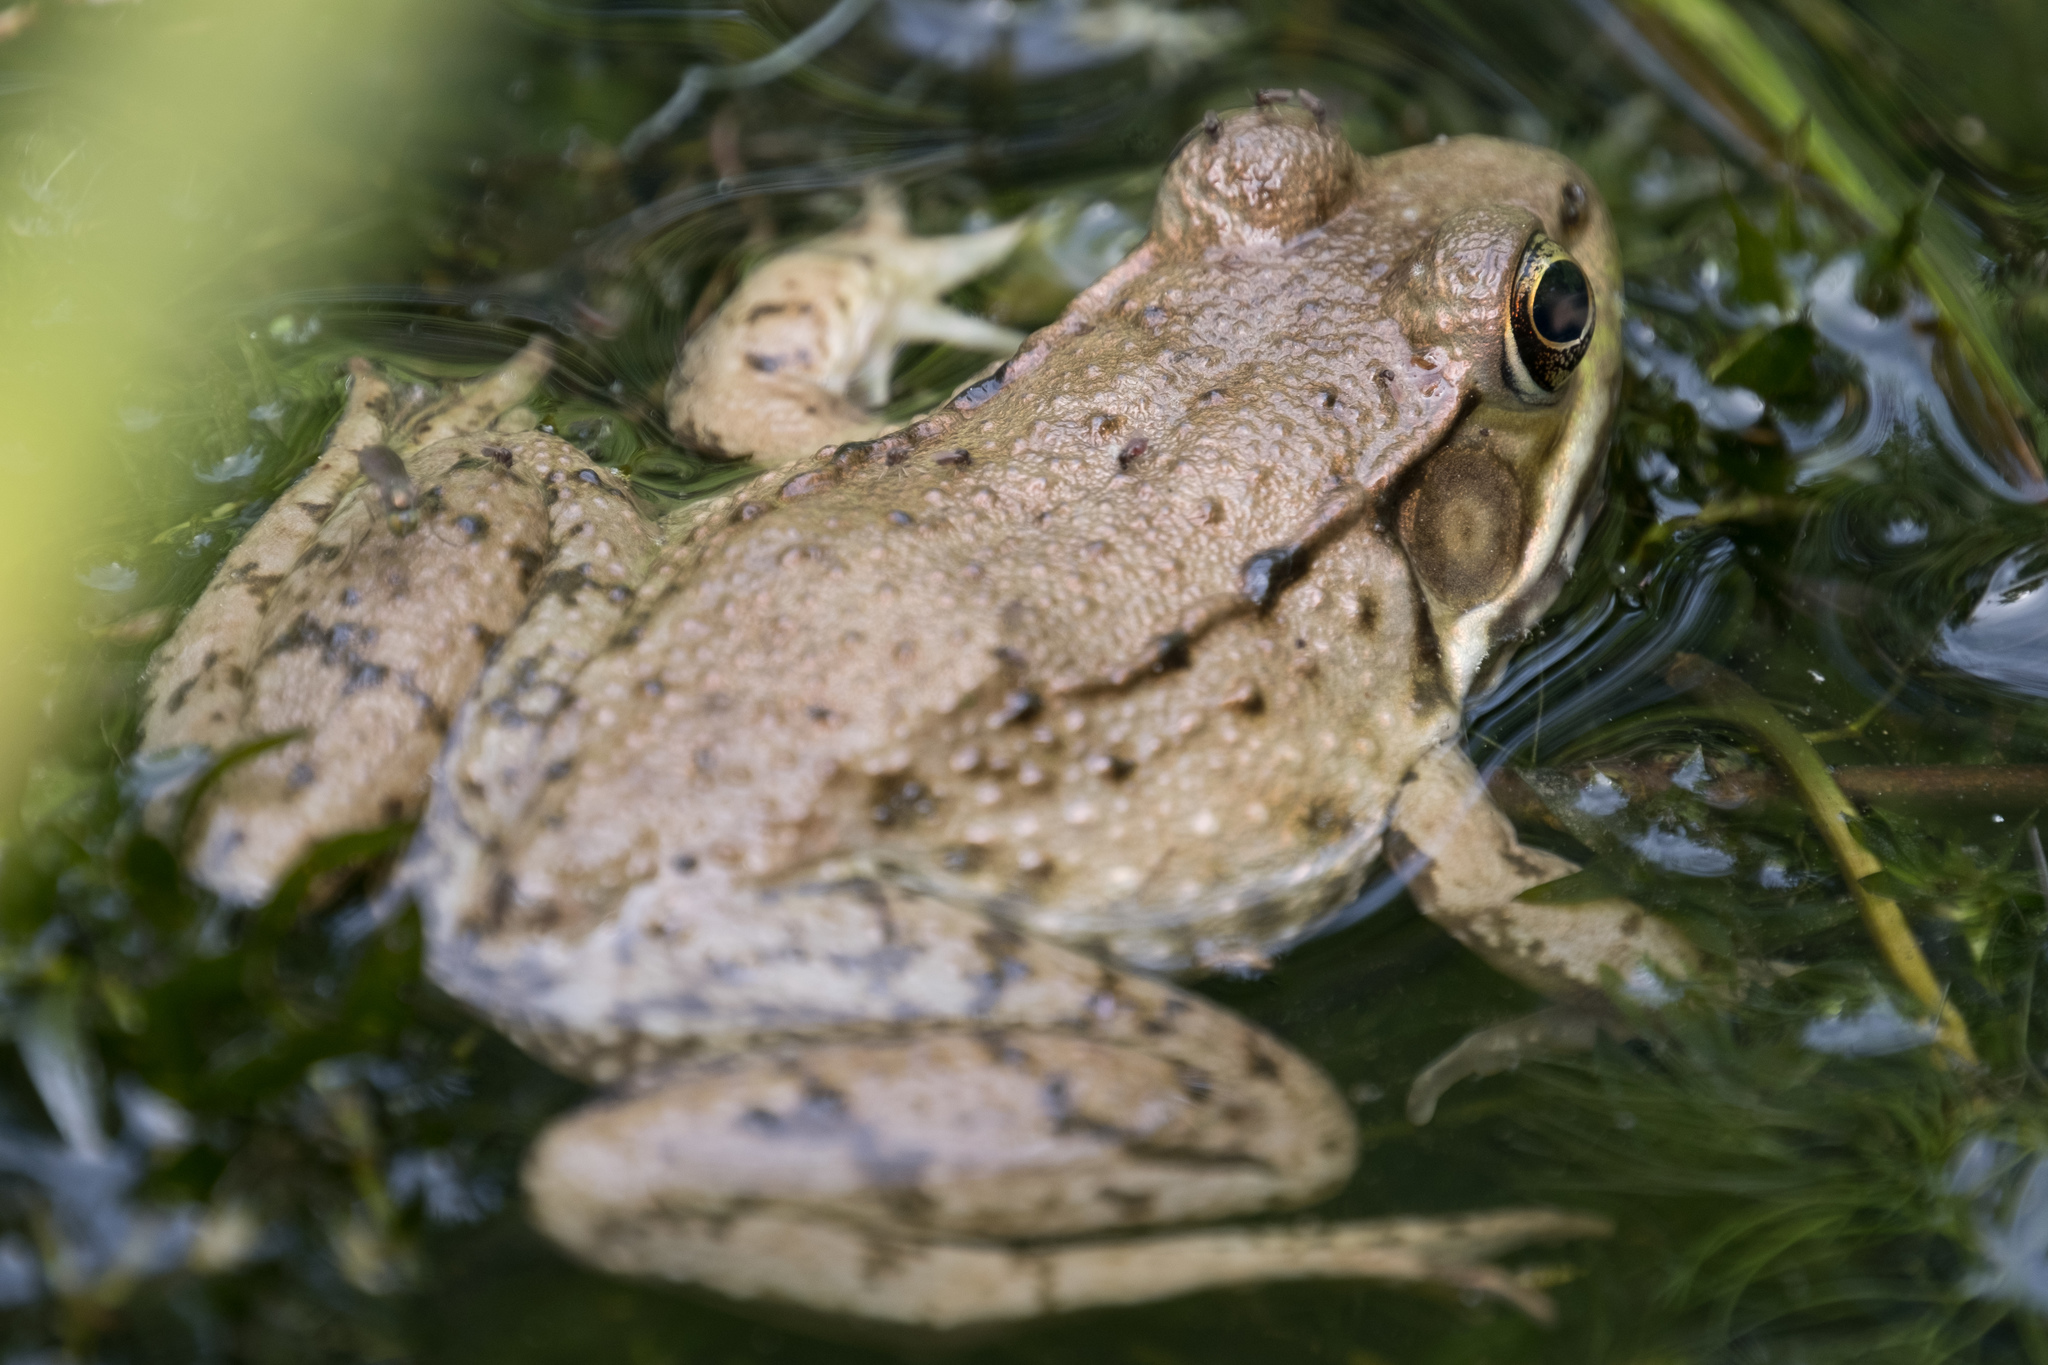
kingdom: Animalia
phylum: Chordata
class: Amphibia
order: Anura
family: Ranidae
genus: Lithobates
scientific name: Lithobates clamitans
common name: Green frog
